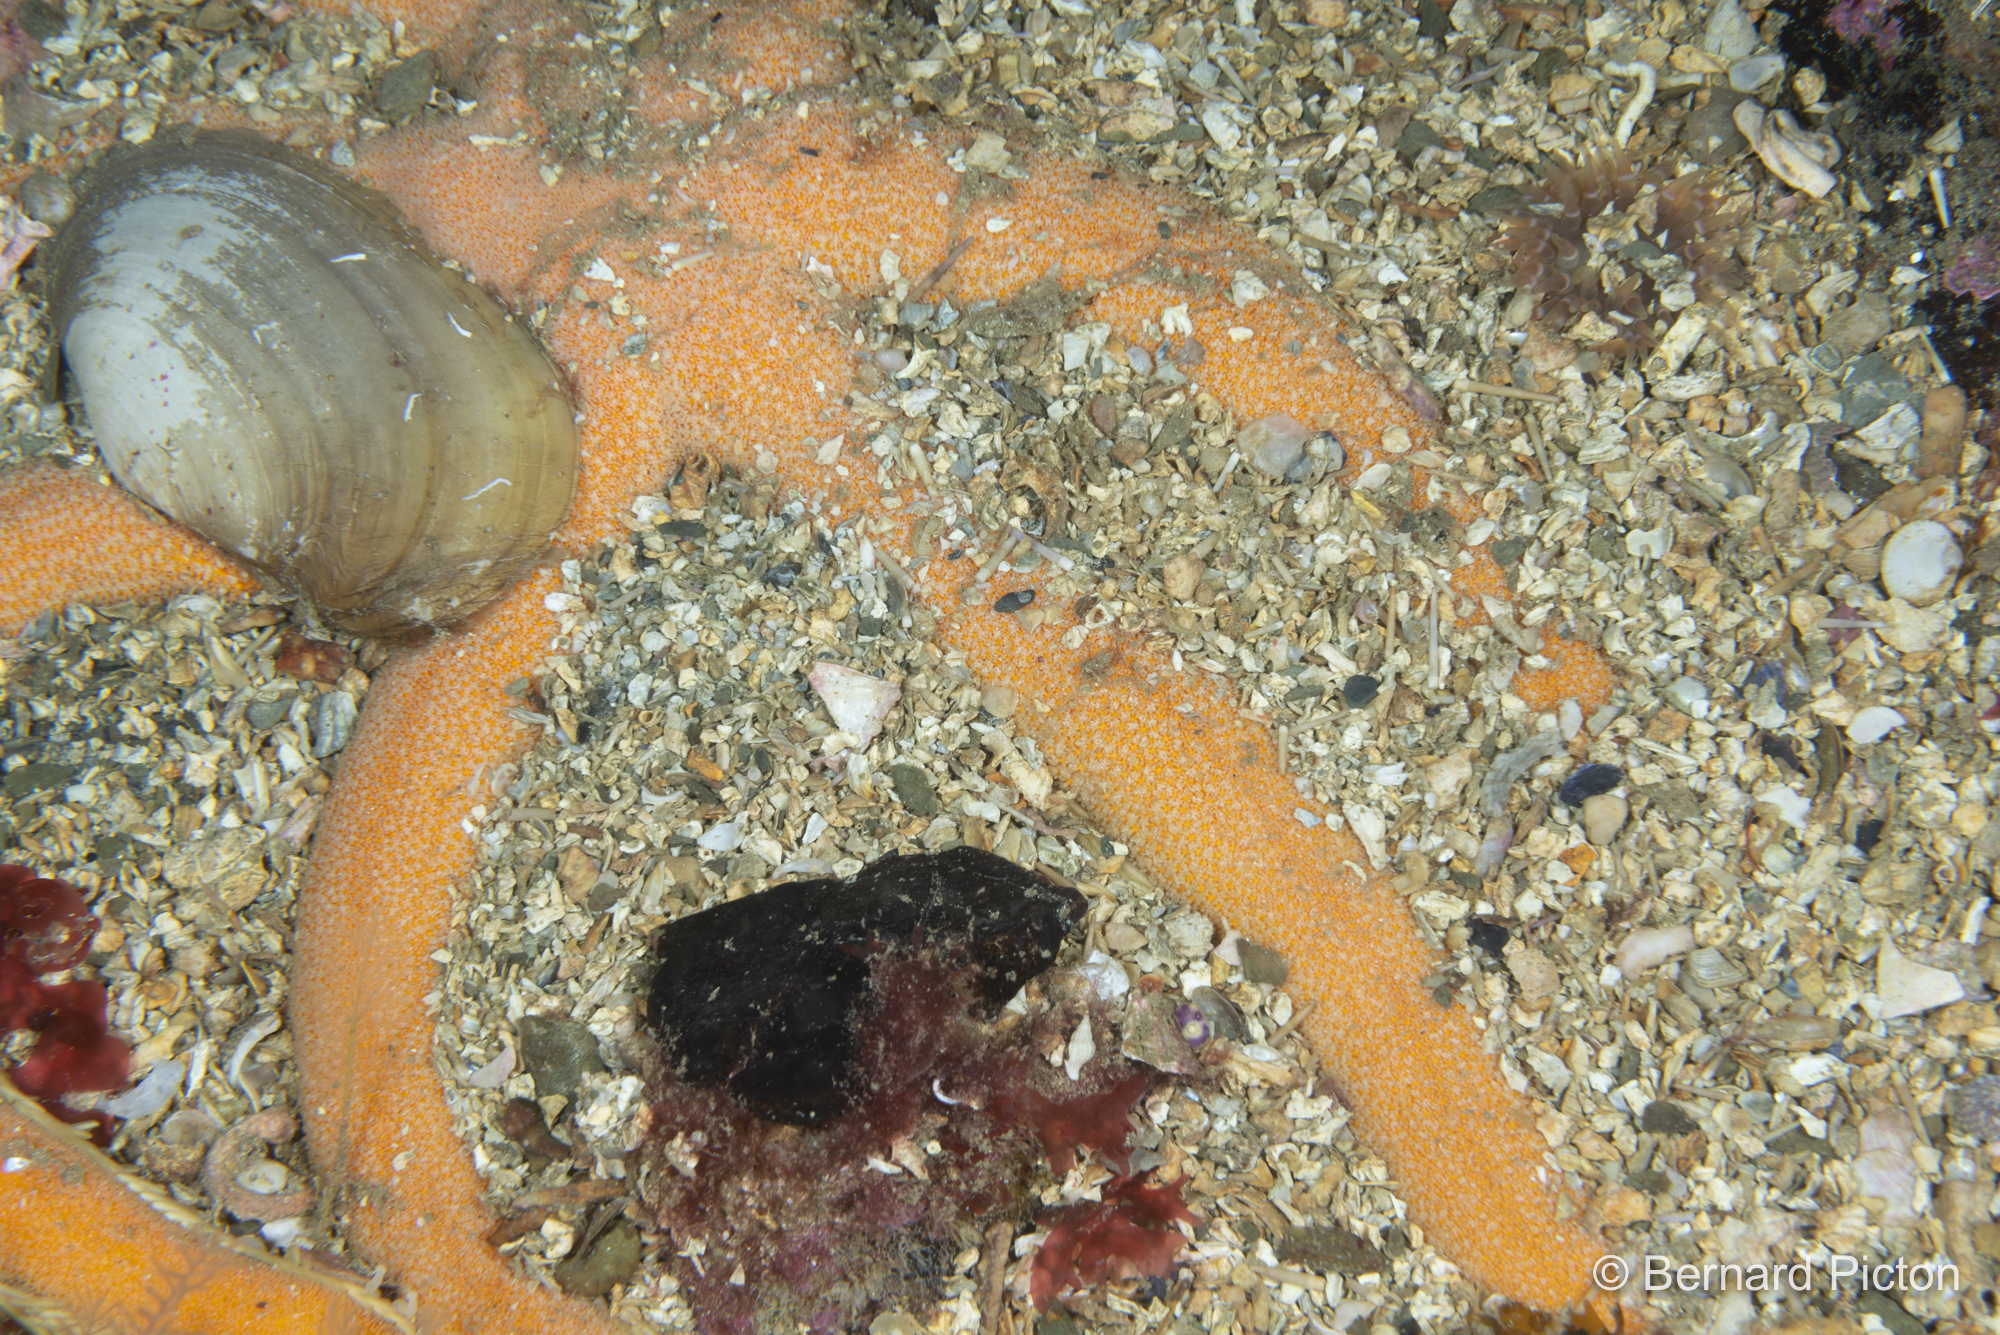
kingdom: Animalia
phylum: Echinodermata
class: Asteroidea
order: Paxillosida
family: Luidiidae
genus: Luidia
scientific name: Luidia ciliaris
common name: Seven-armed starfish
